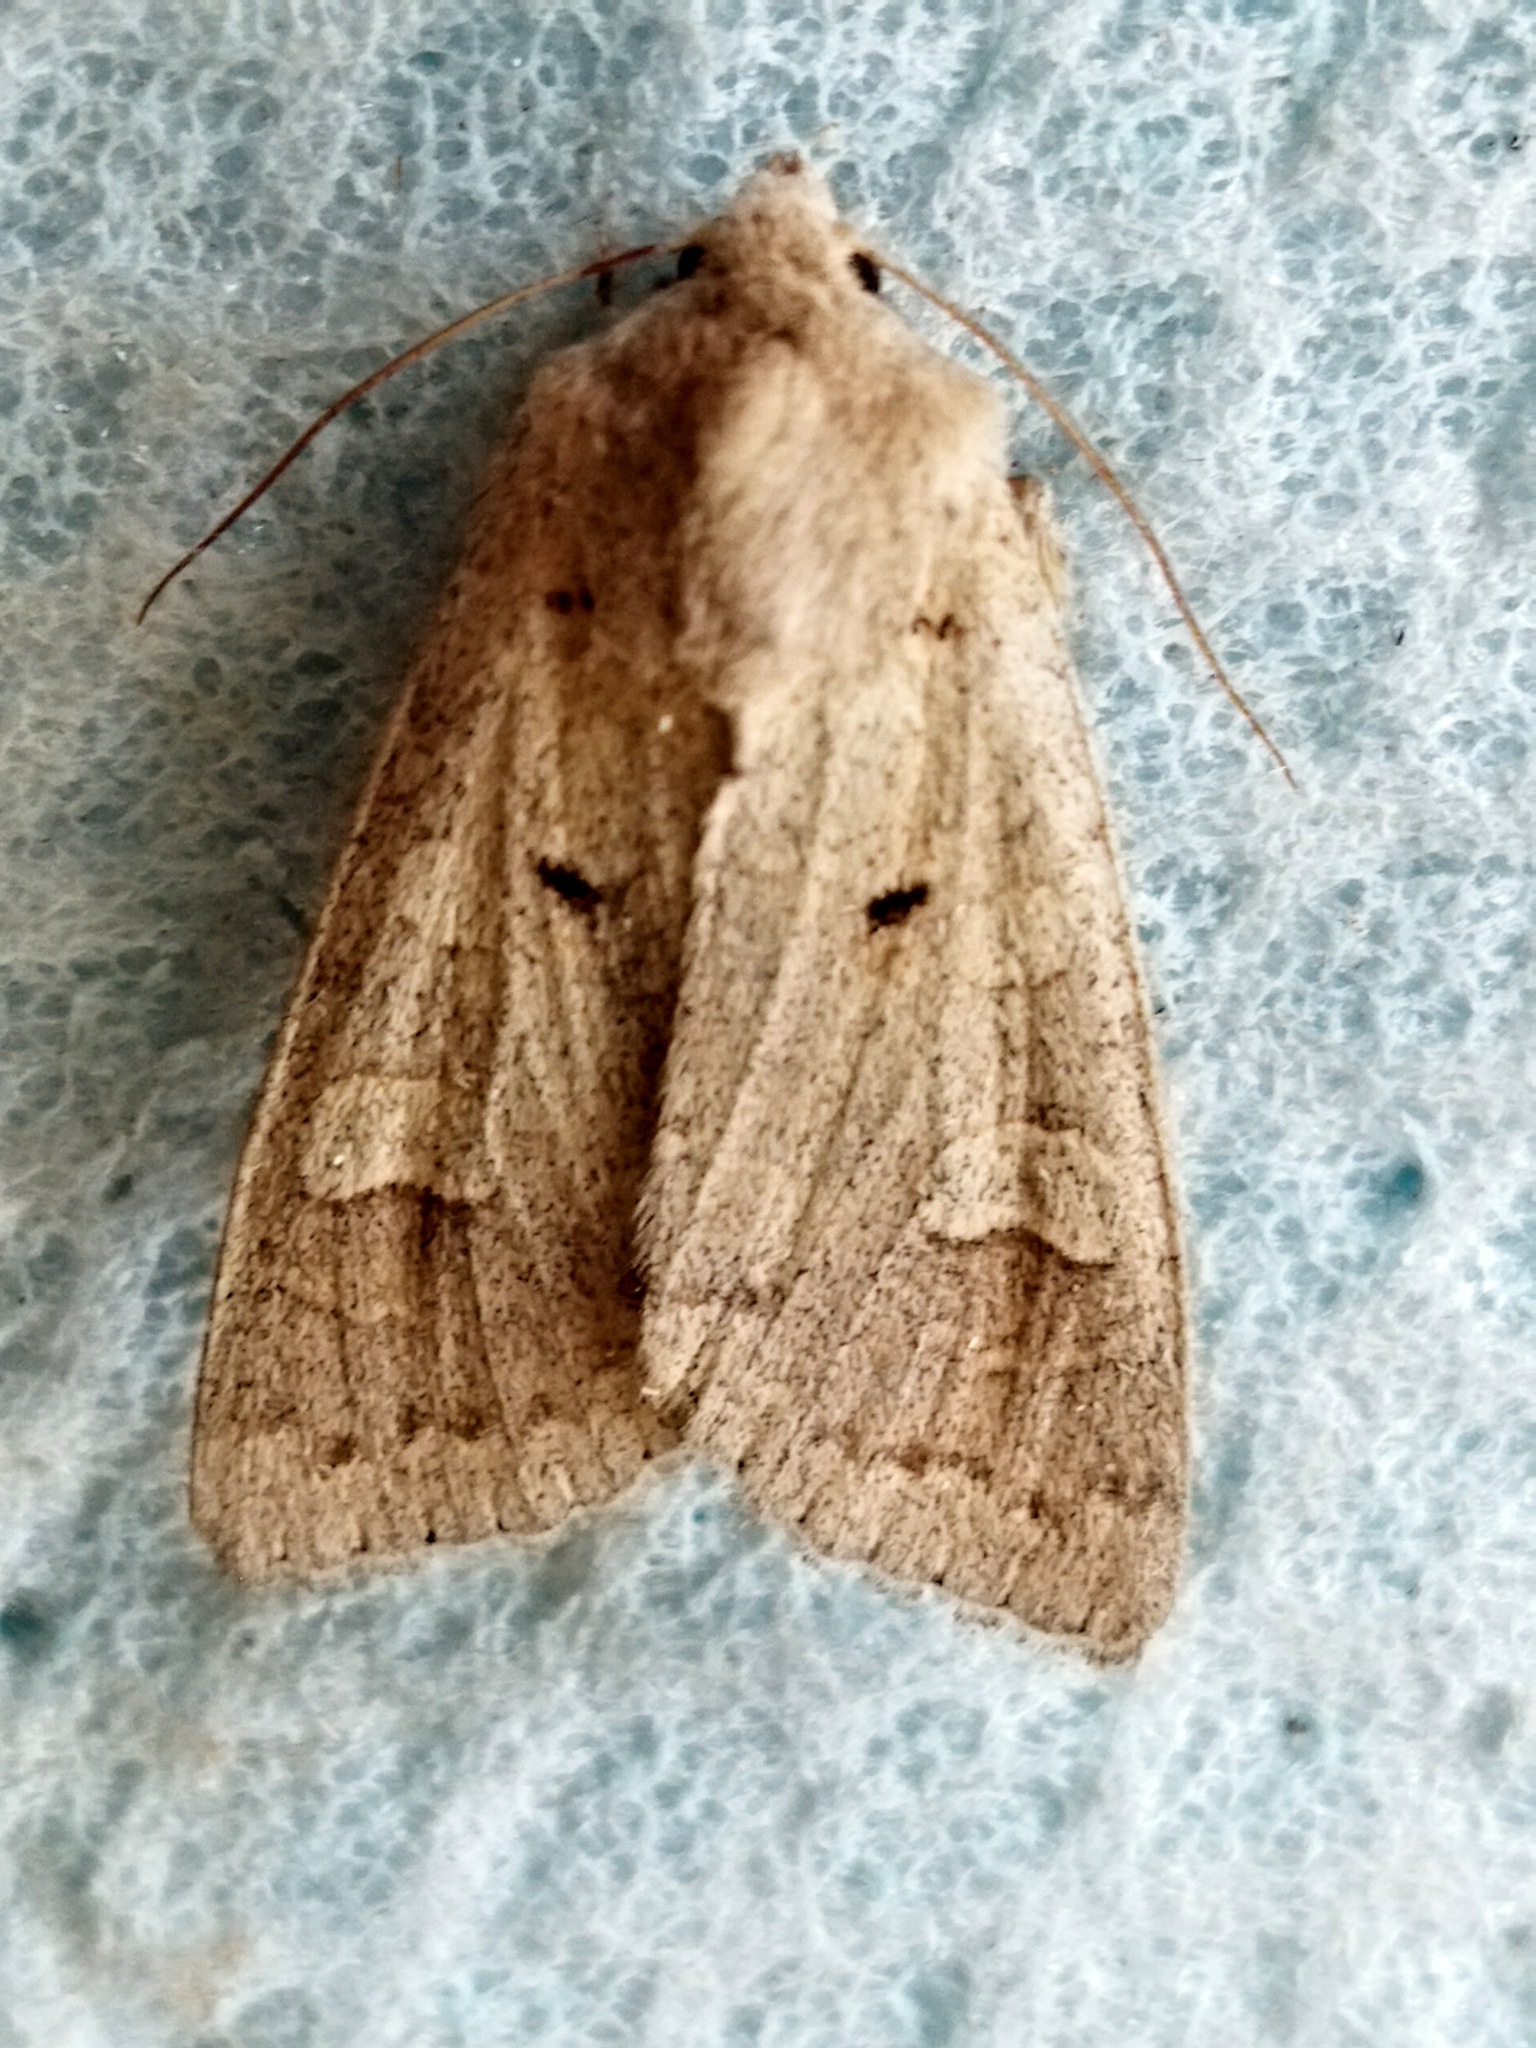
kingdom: Animalia
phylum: Arthropoda
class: Insecta
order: Lepidoptera
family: Noctuidae
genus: Ammoconia
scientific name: Ammoconia caecimacula
